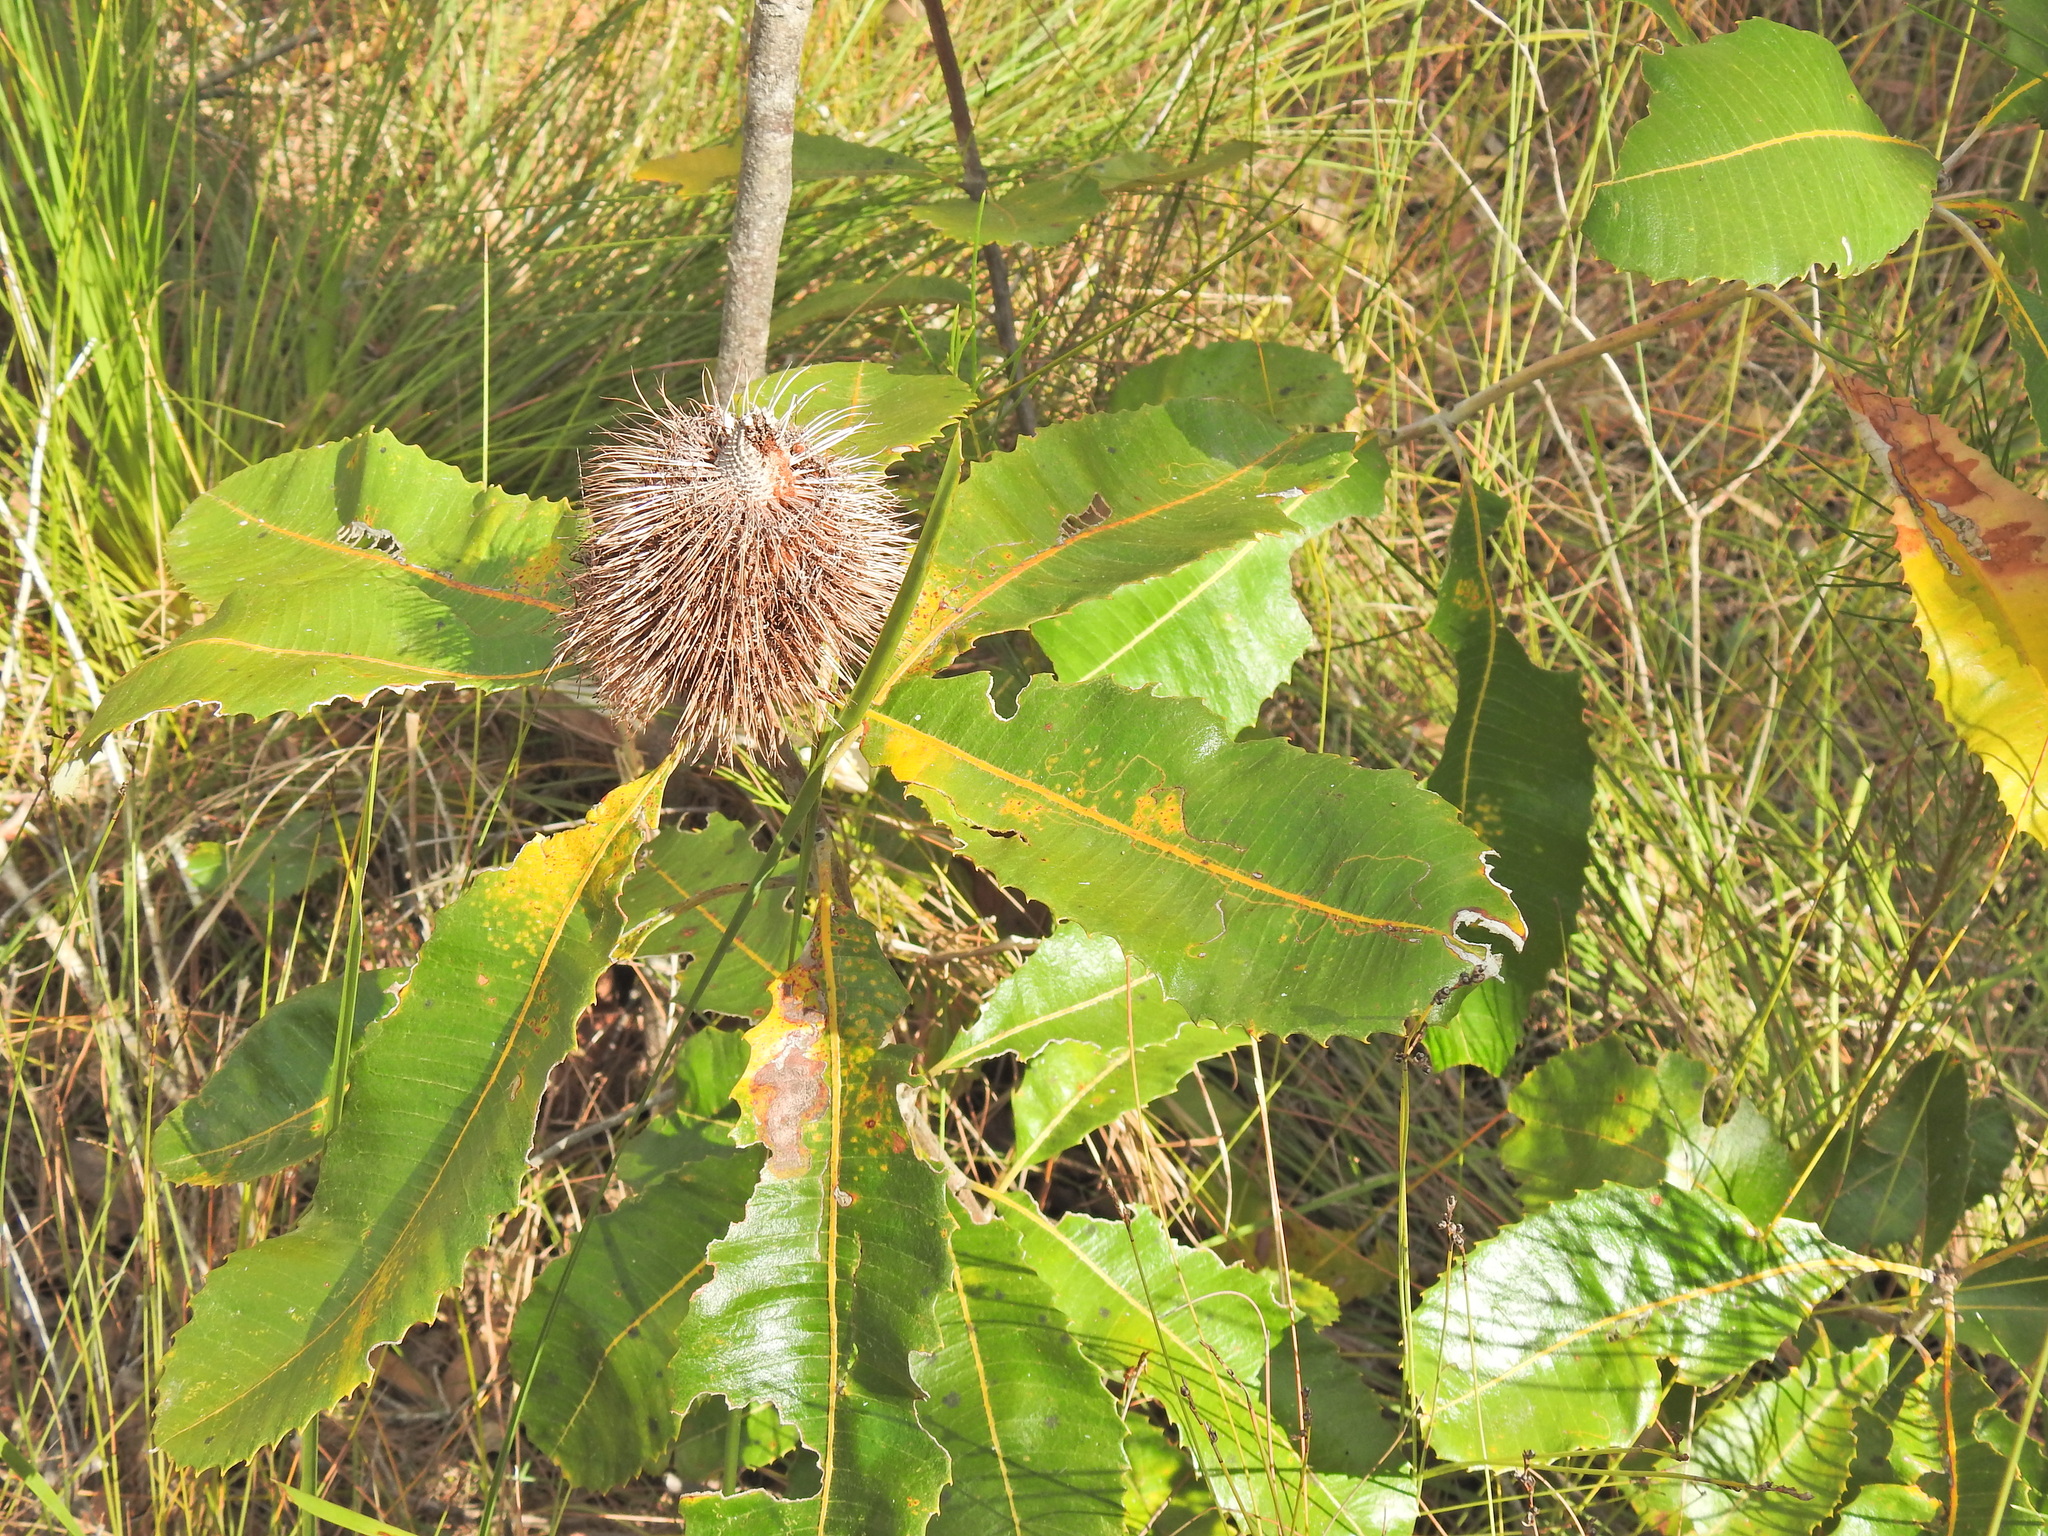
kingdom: Plantae
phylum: Tracheophyta
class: Magnoliopsida
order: Proteales
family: Proteaceae
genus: Banksia
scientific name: Banksia robur
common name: Broadleaf banksia
